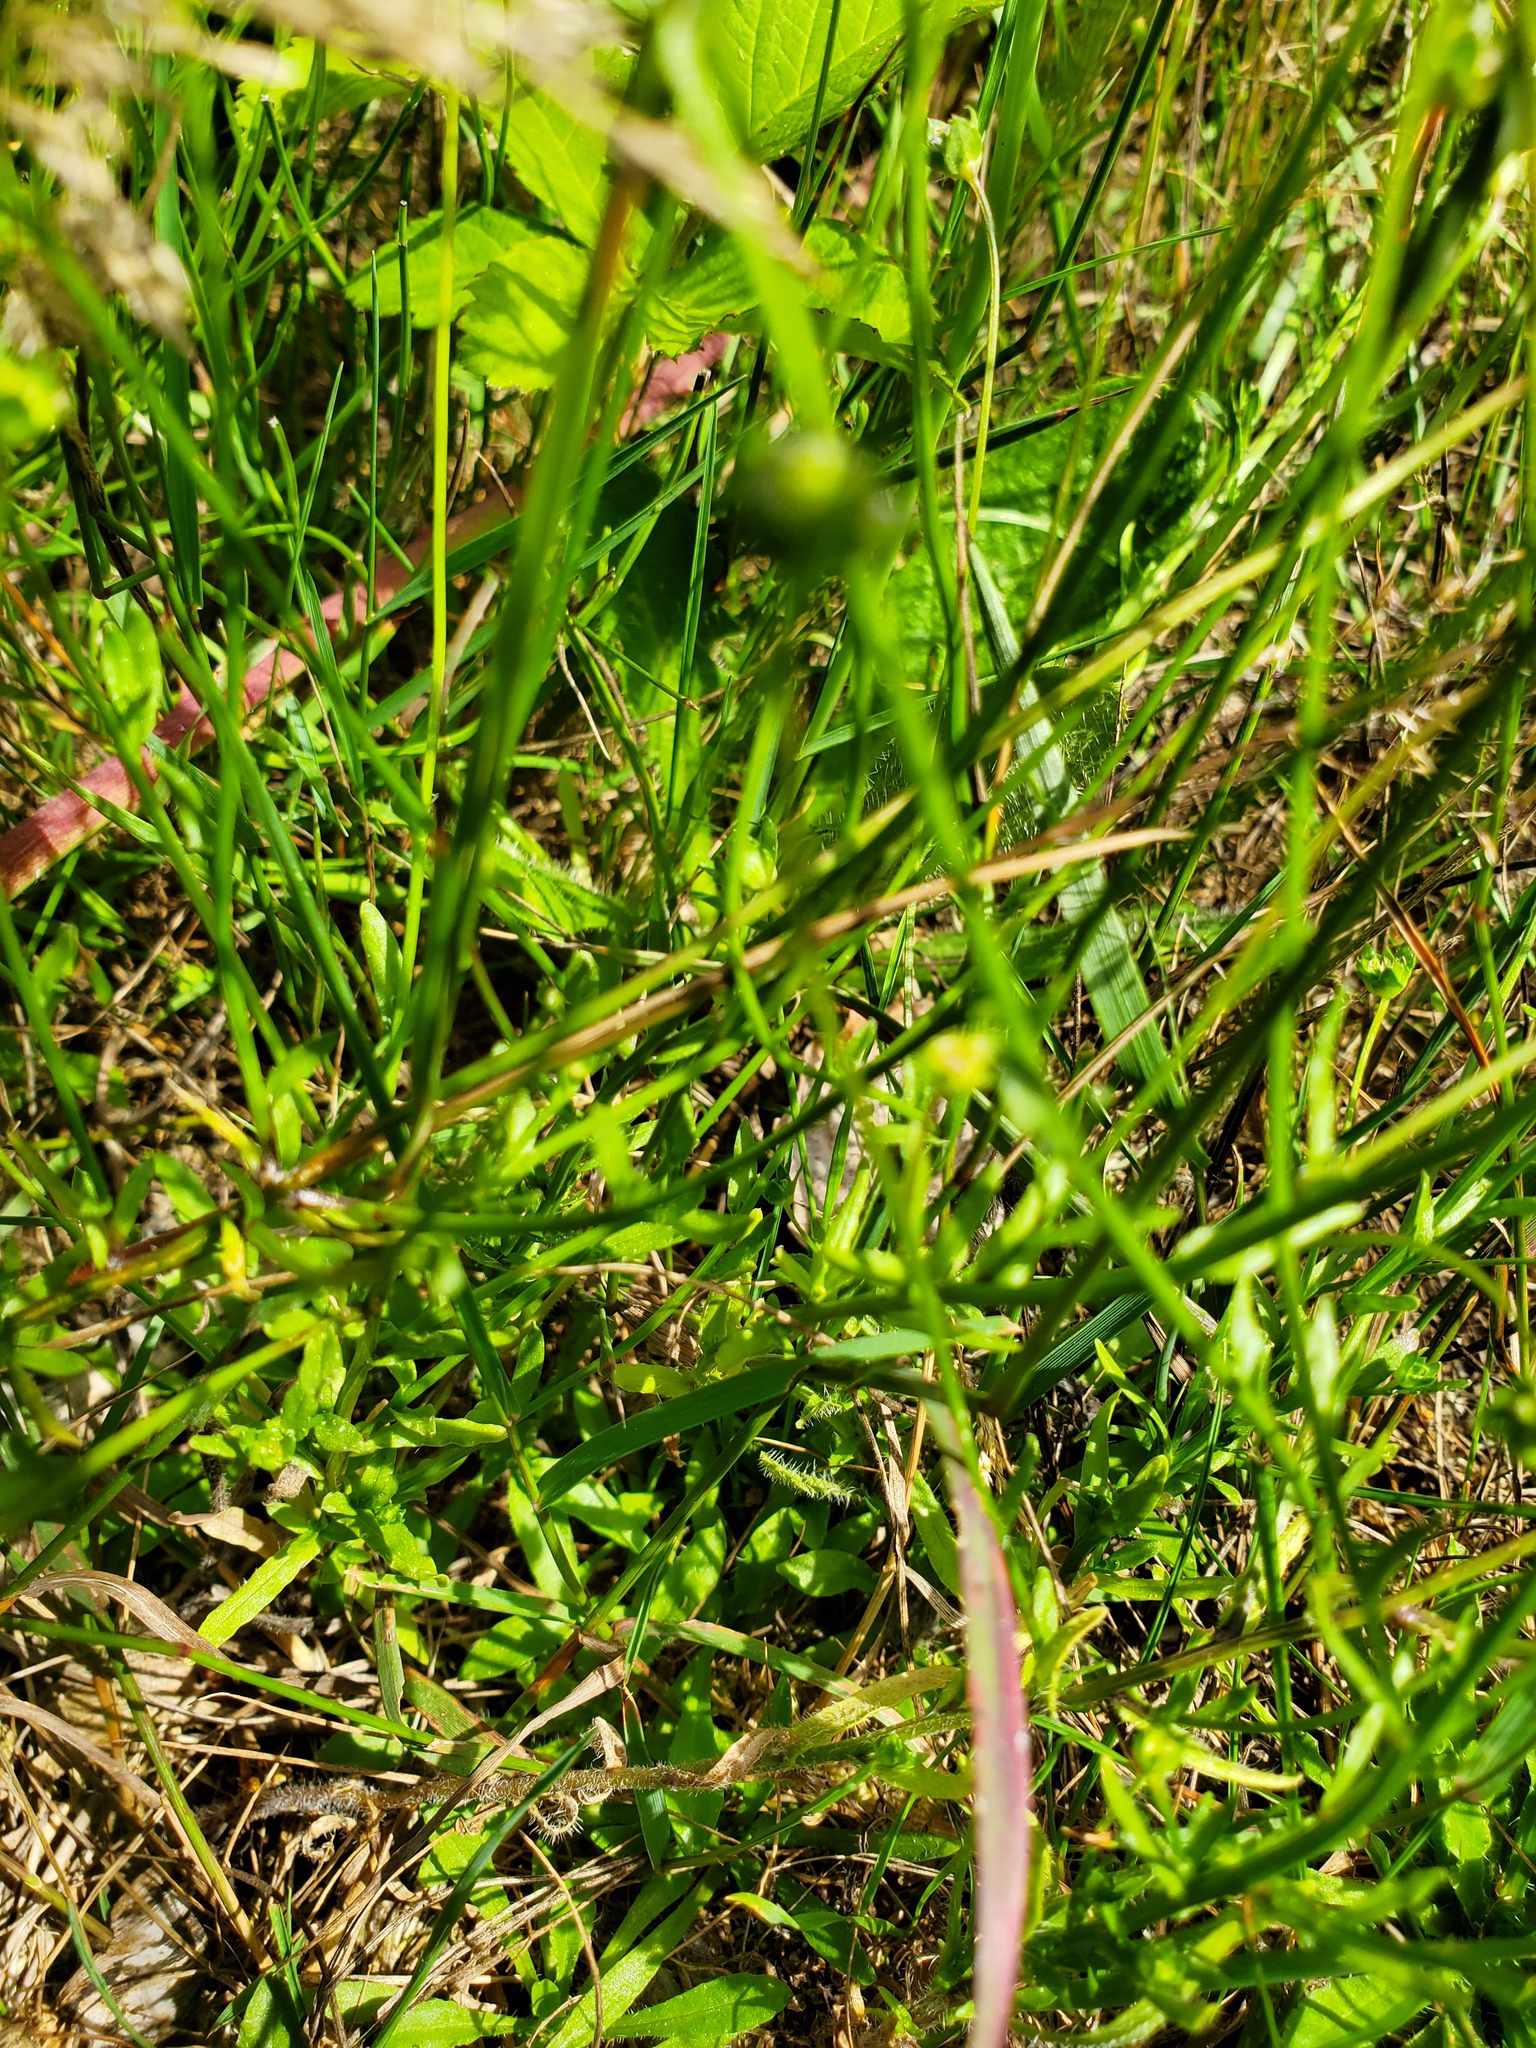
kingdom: Plantae
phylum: Tracheophyta
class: Magnoliopsida
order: Asterales
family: Campanulaceae
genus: Jasione
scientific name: Jasione montana
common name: Sheep's-bit
